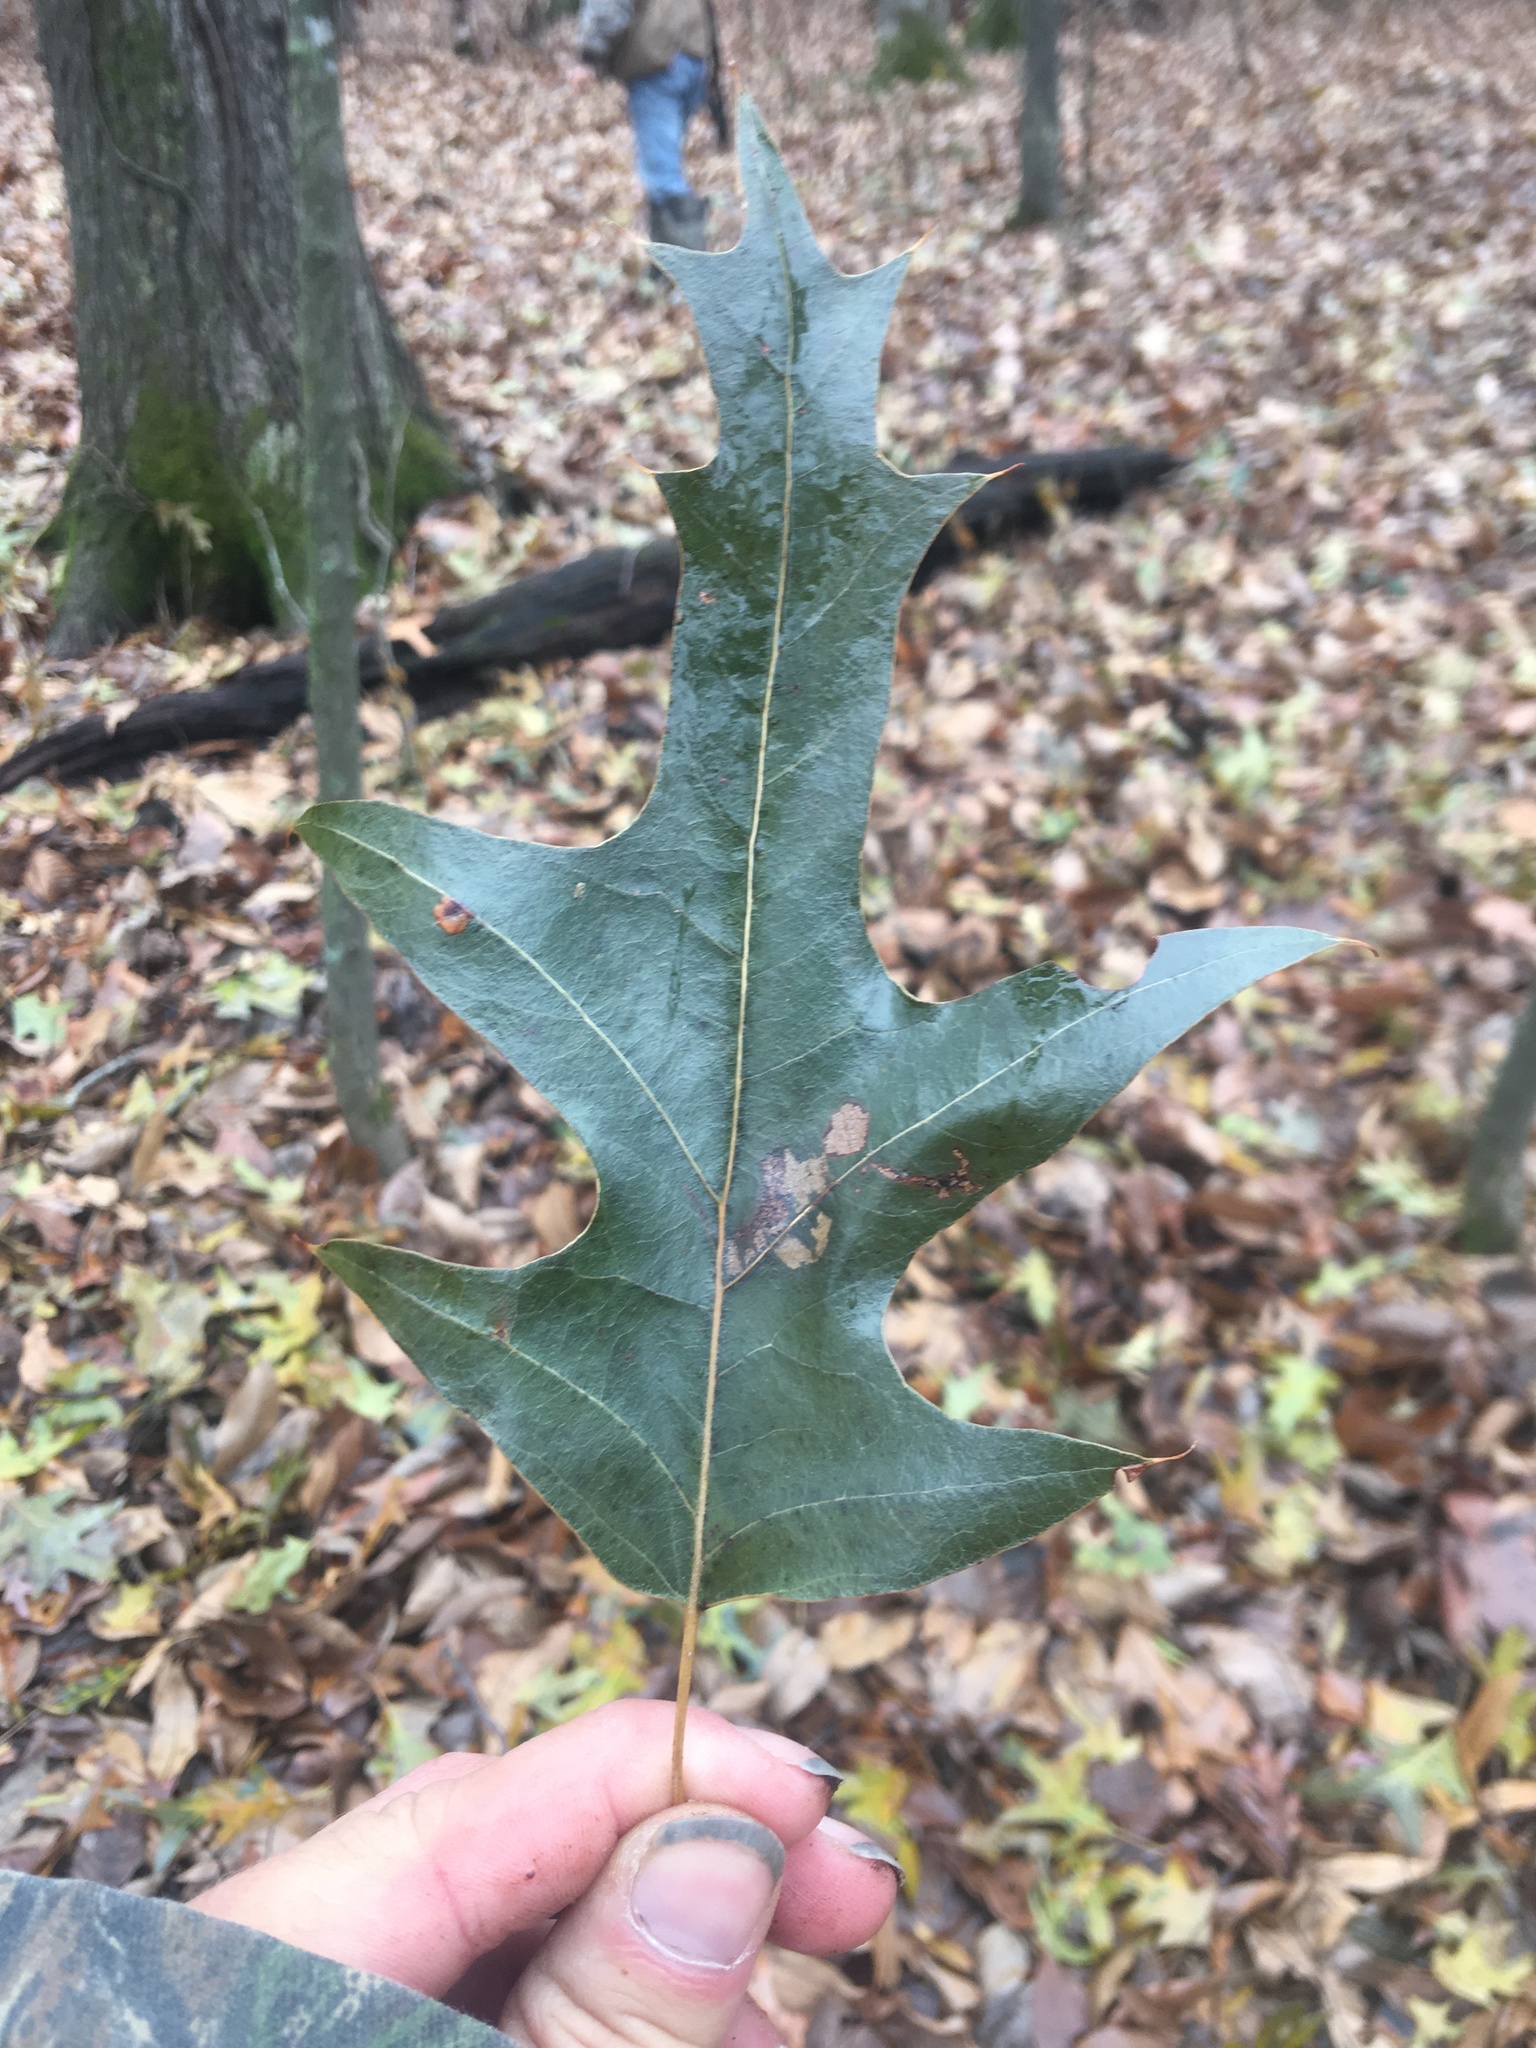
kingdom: Plantae
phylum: Tracheophyta
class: Magnoliopsida
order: Fagales
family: Fagaceae
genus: Quercus
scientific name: Quercus falcata
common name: Southern red oak
